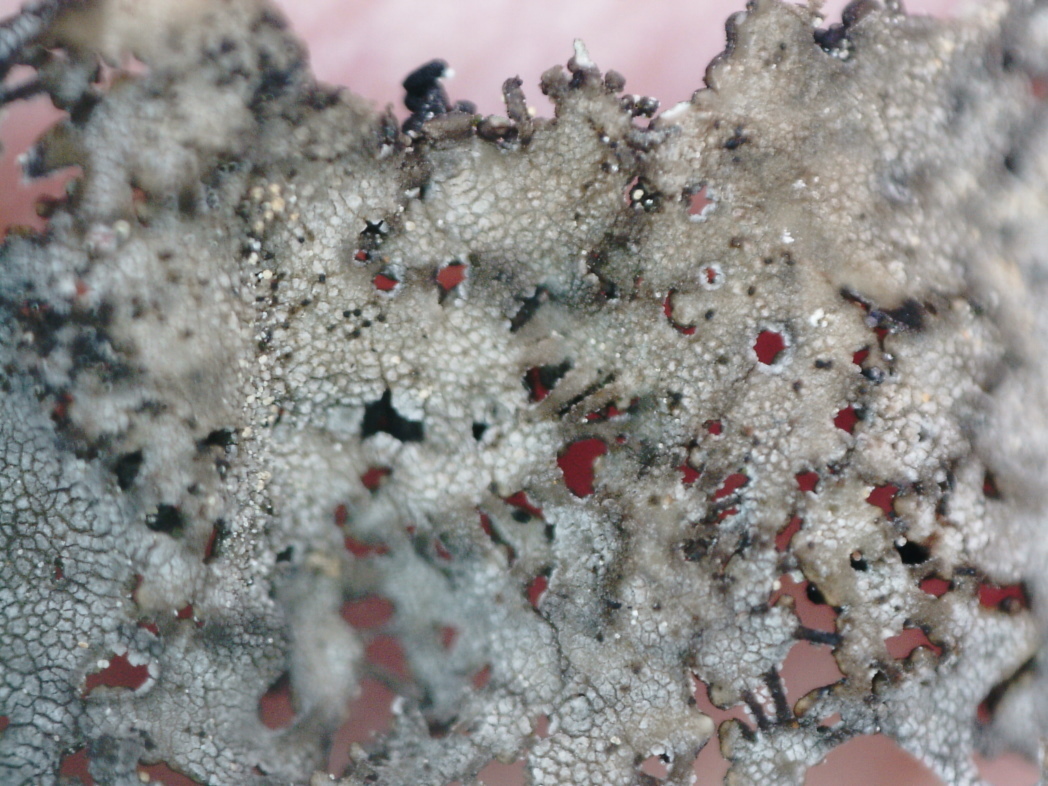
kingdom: Fungi
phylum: Ascomycota
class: Lecanoromycetes
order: Umbilicariales
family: Umbilicariaceae
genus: Umbilicaria
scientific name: Umbilicaria torrefacta
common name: Punctured rock tripe lichen
